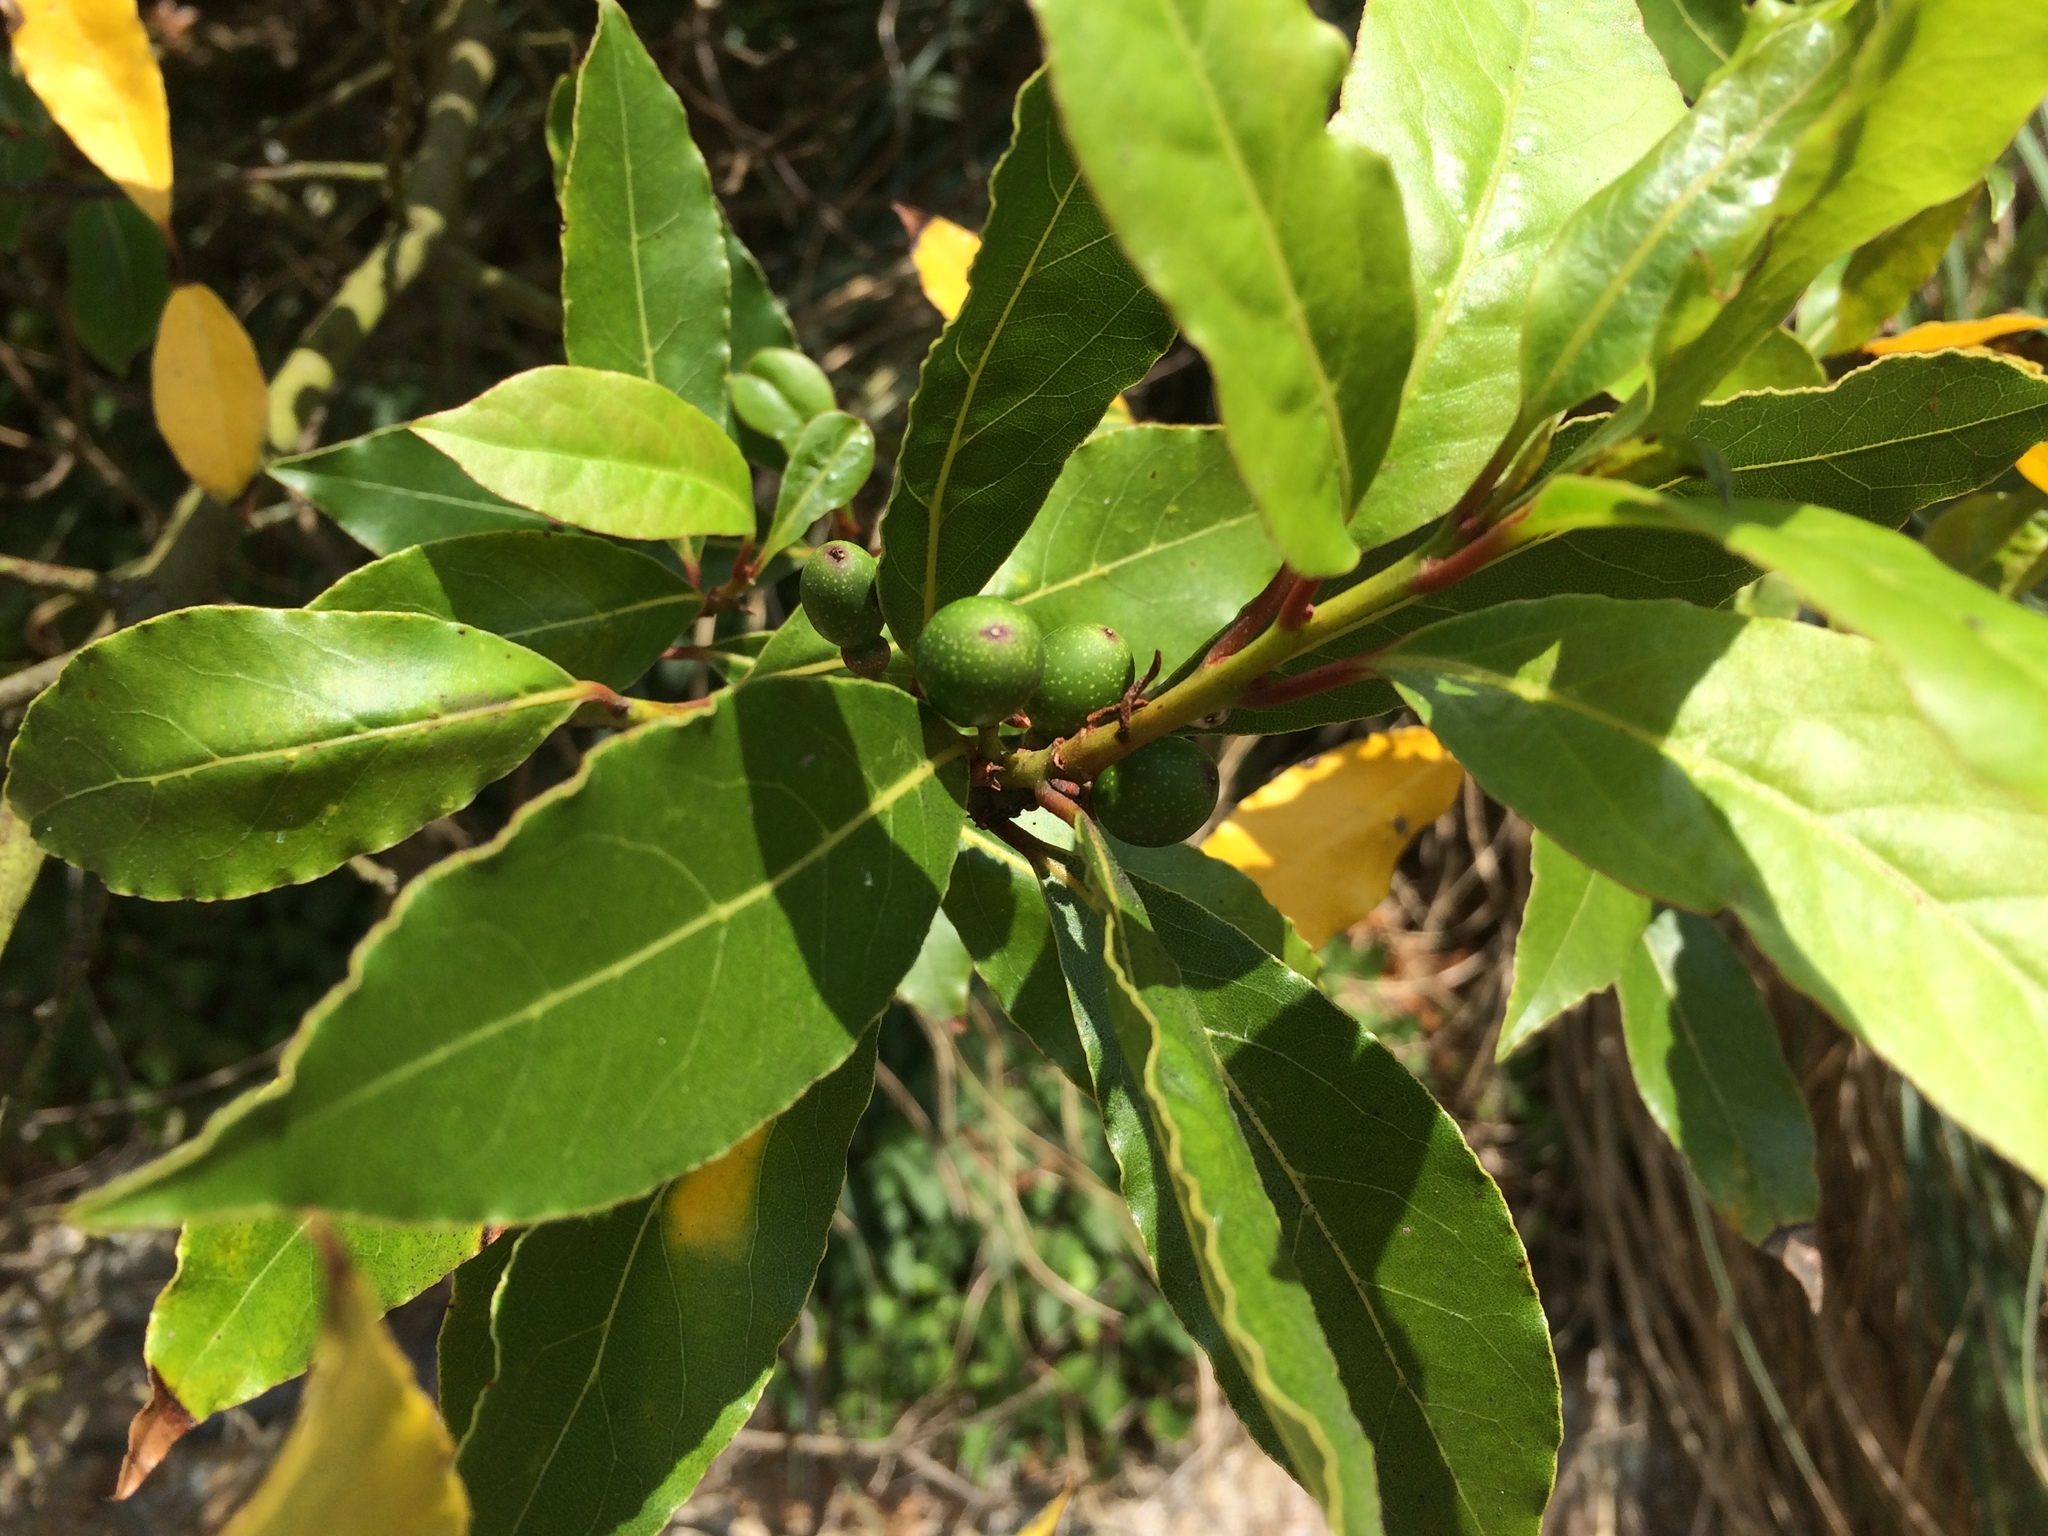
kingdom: Plantae
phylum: Tracheophyta
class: Magnoliopsida
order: Laurales
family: Lauraceae
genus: Laurus
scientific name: Laurus nobilis
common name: Bay
